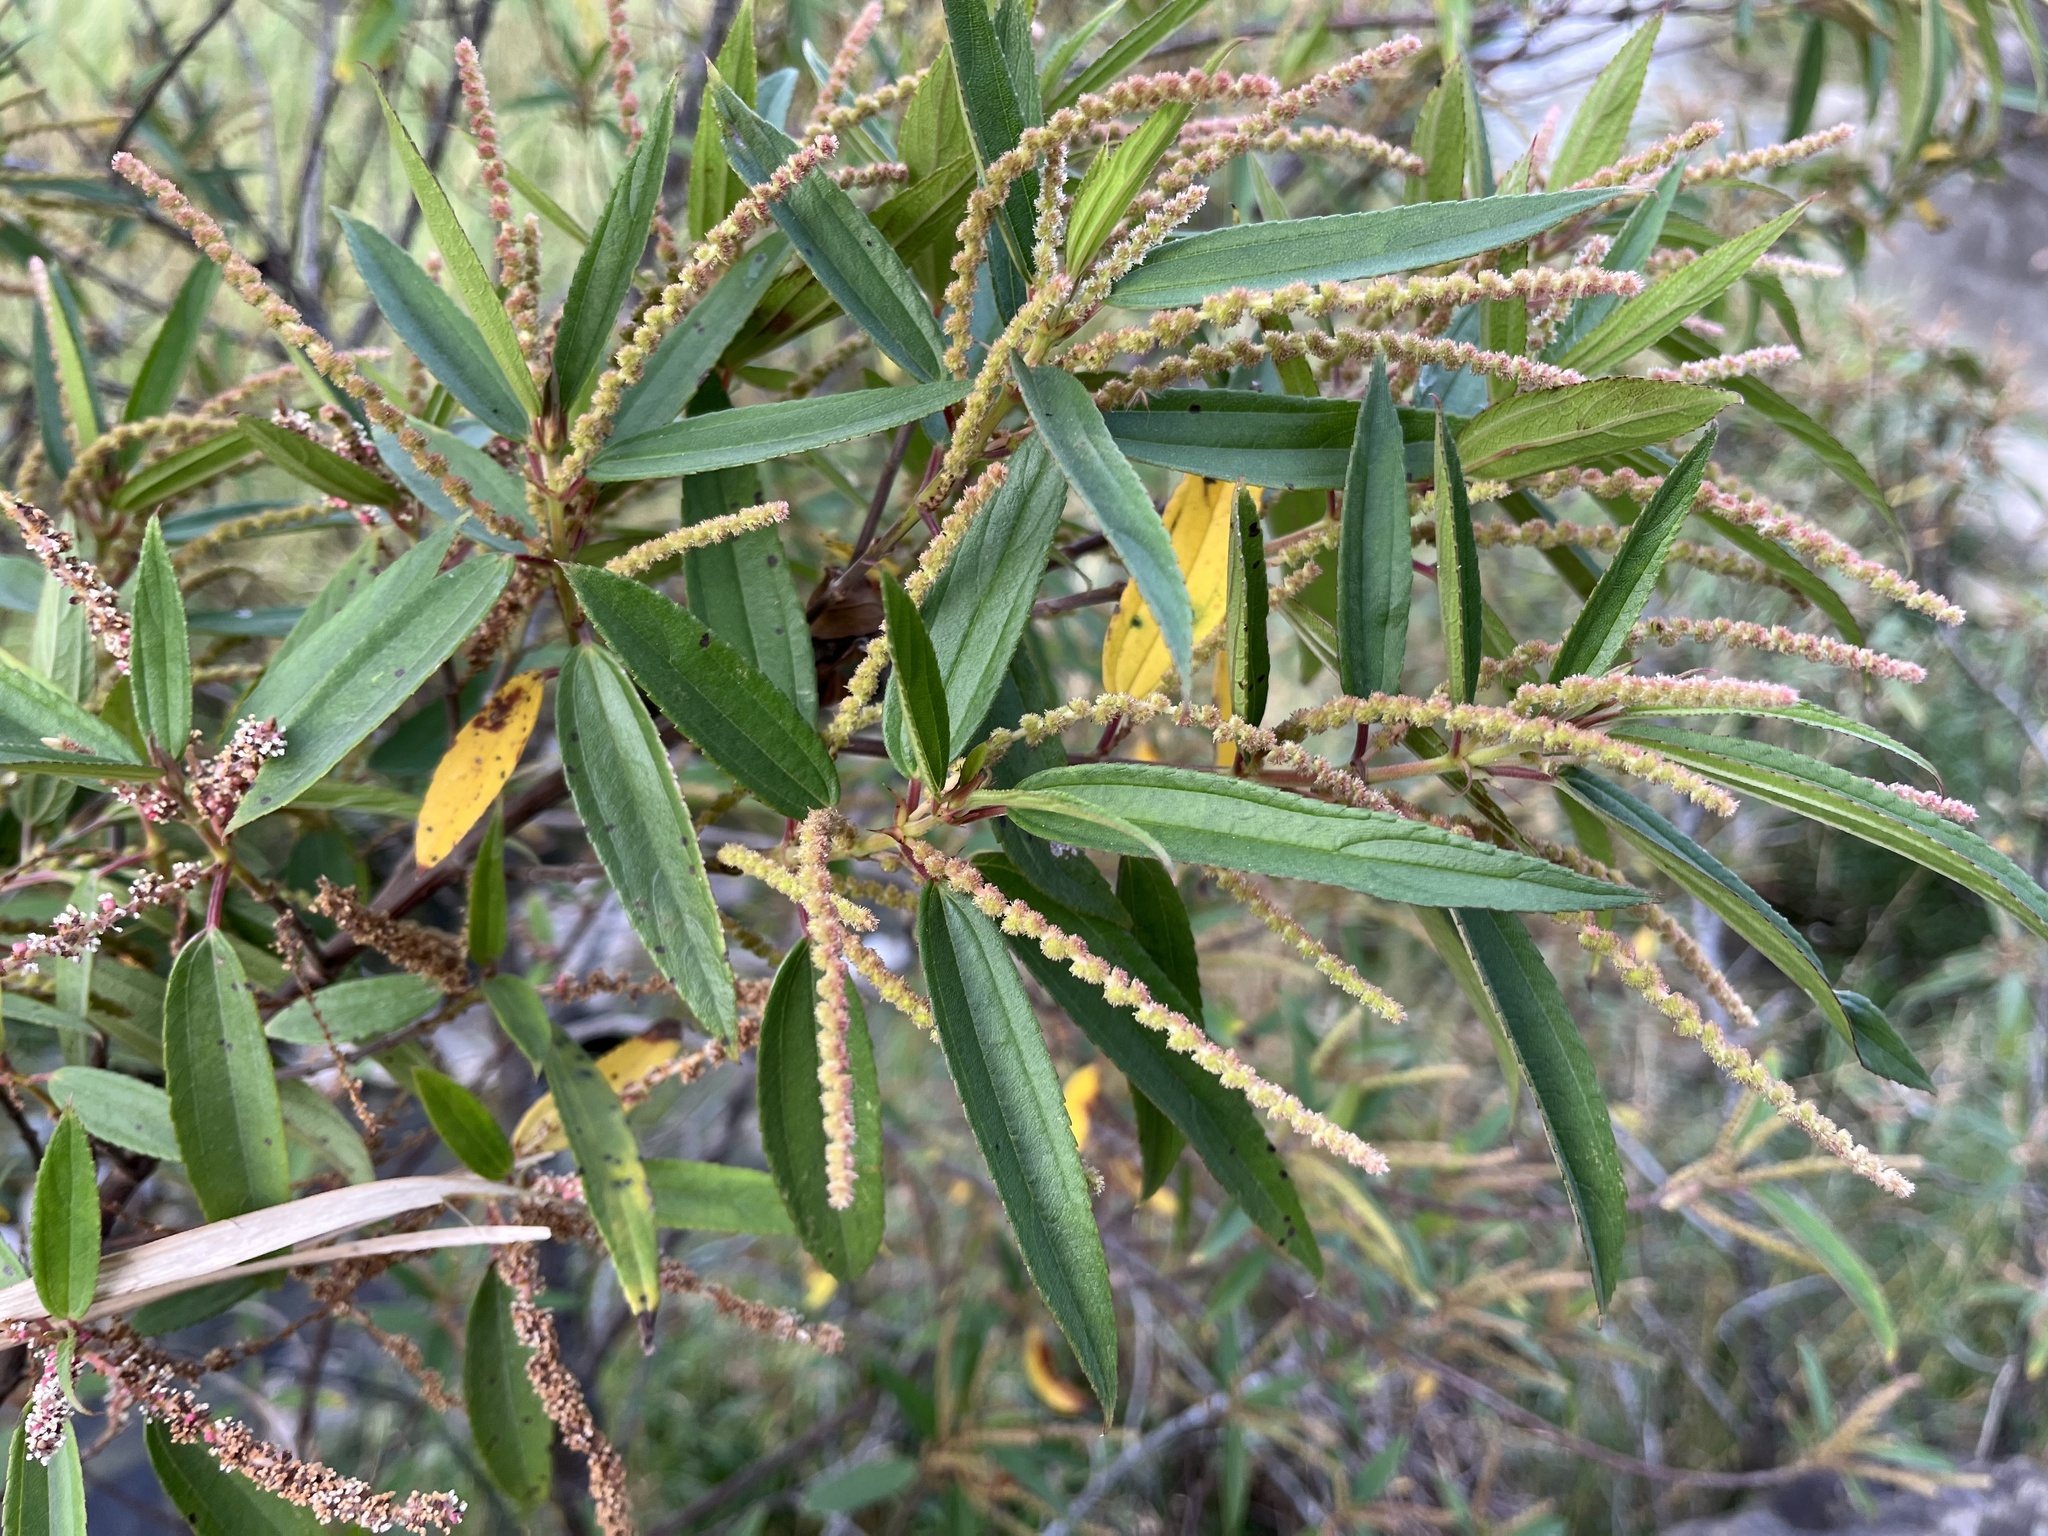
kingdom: Plantae
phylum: Tracheophyta
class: Magnoliopsida
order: Rosales
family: Urticaceae
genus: Boehmeria
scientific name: Boehmeria densiflora
